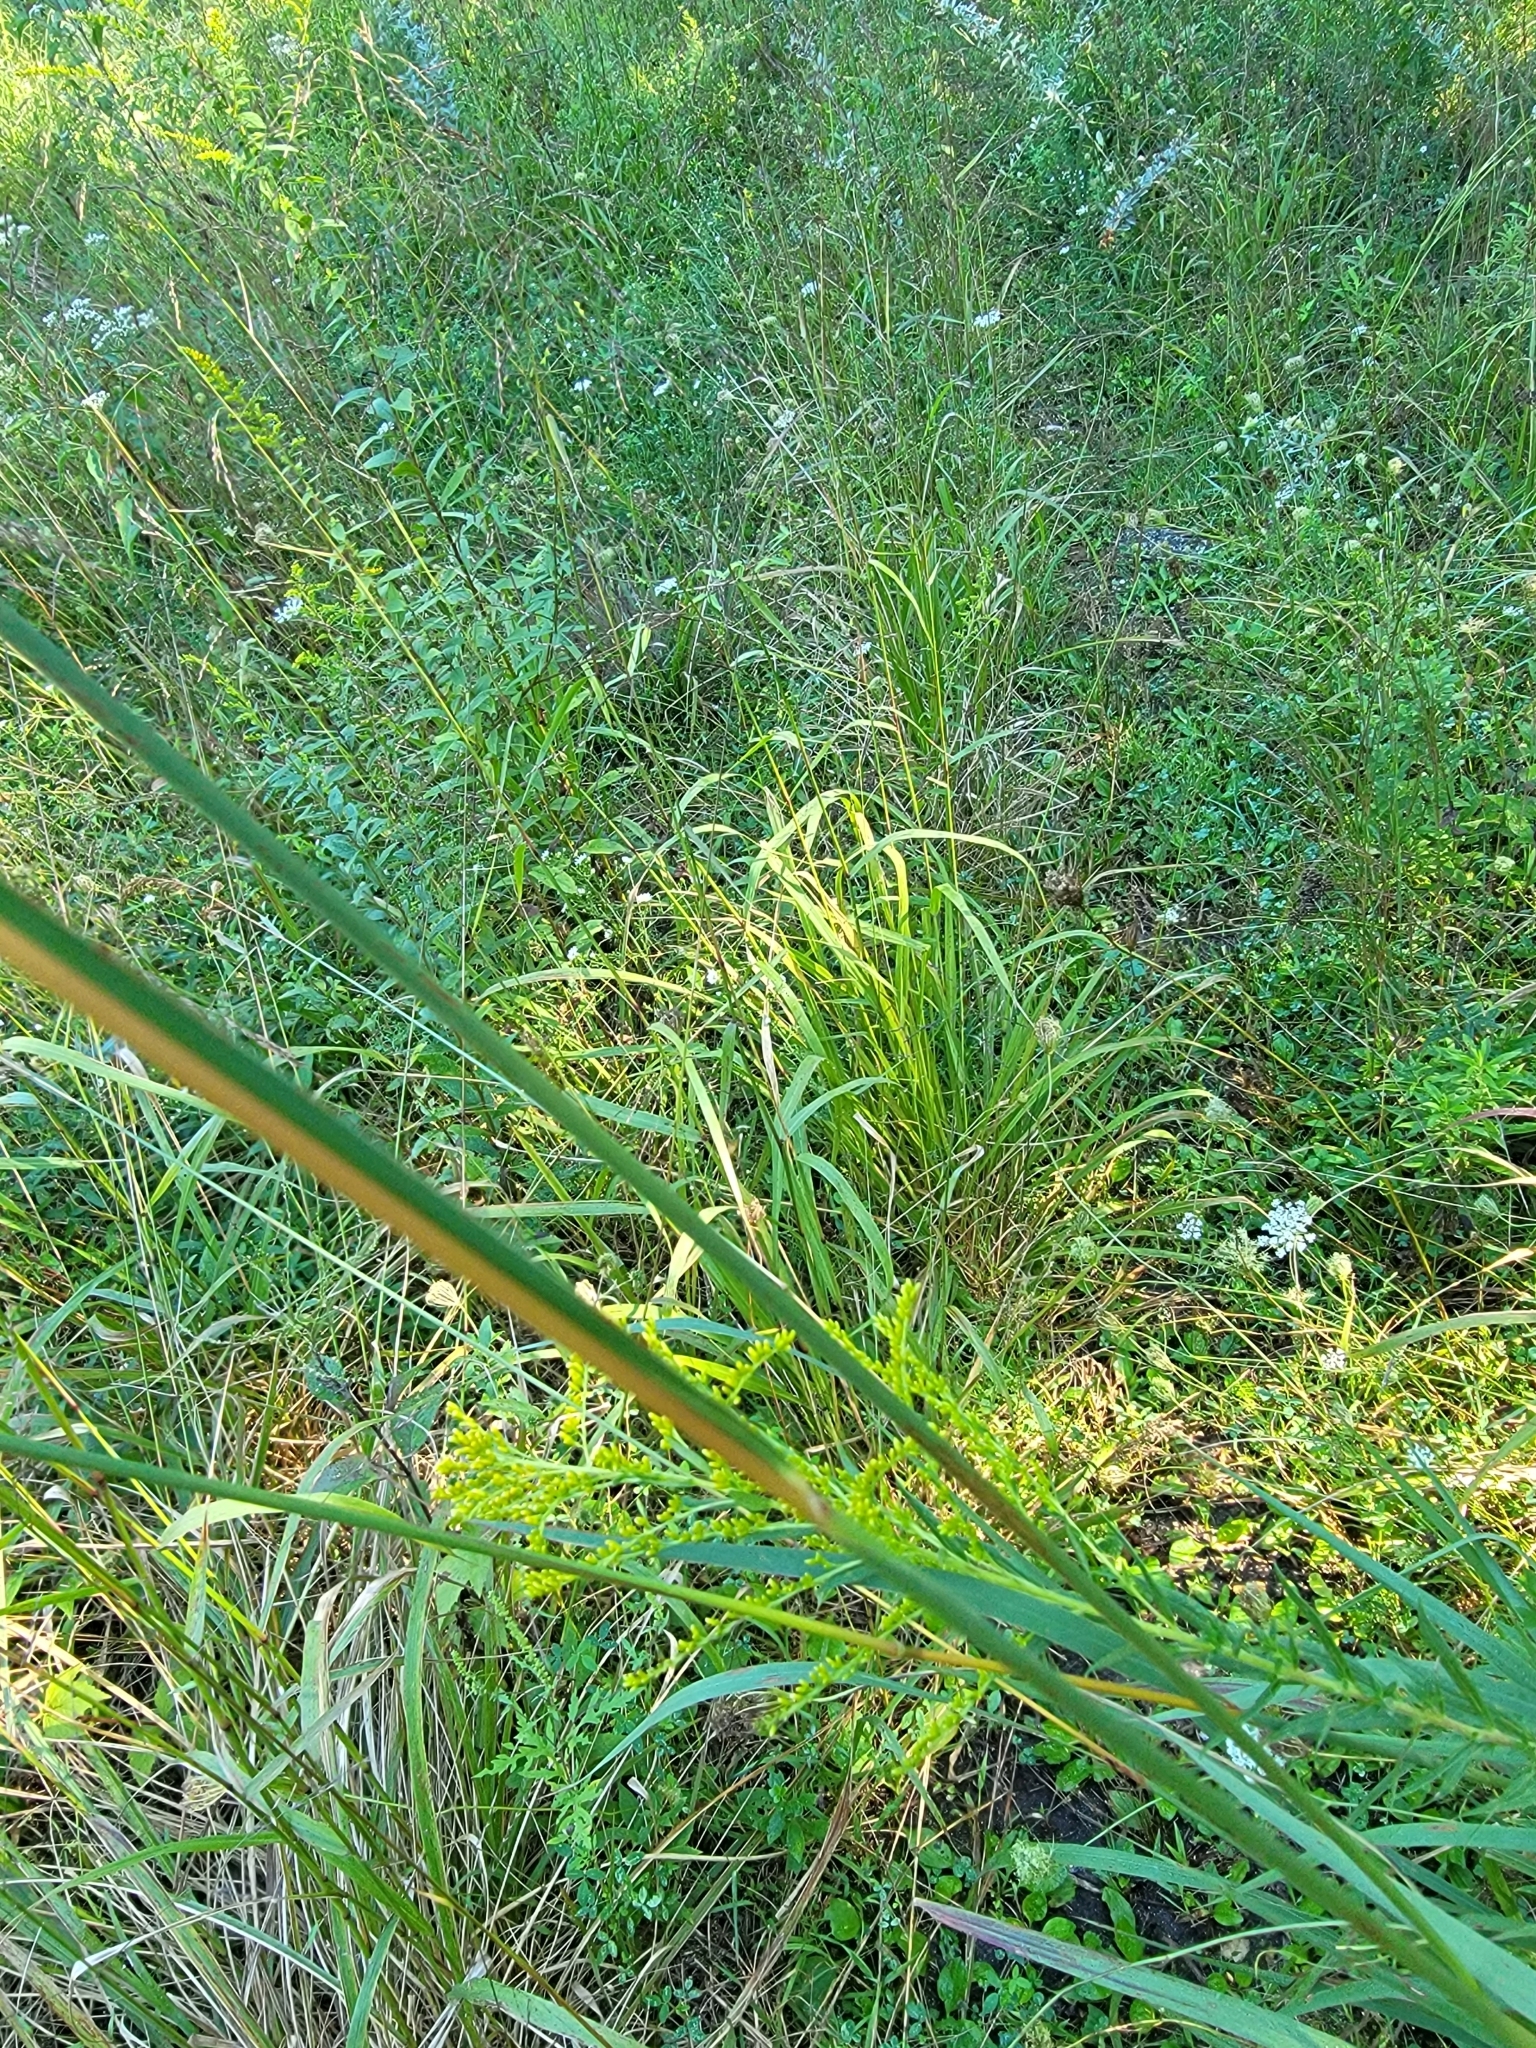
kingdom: Plantae
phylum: Tracheophyta
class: Liliopsida
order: Poales
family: Poaceae
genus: Sorghastrum
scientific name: Sorghastrum nutans
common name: Indian grass
